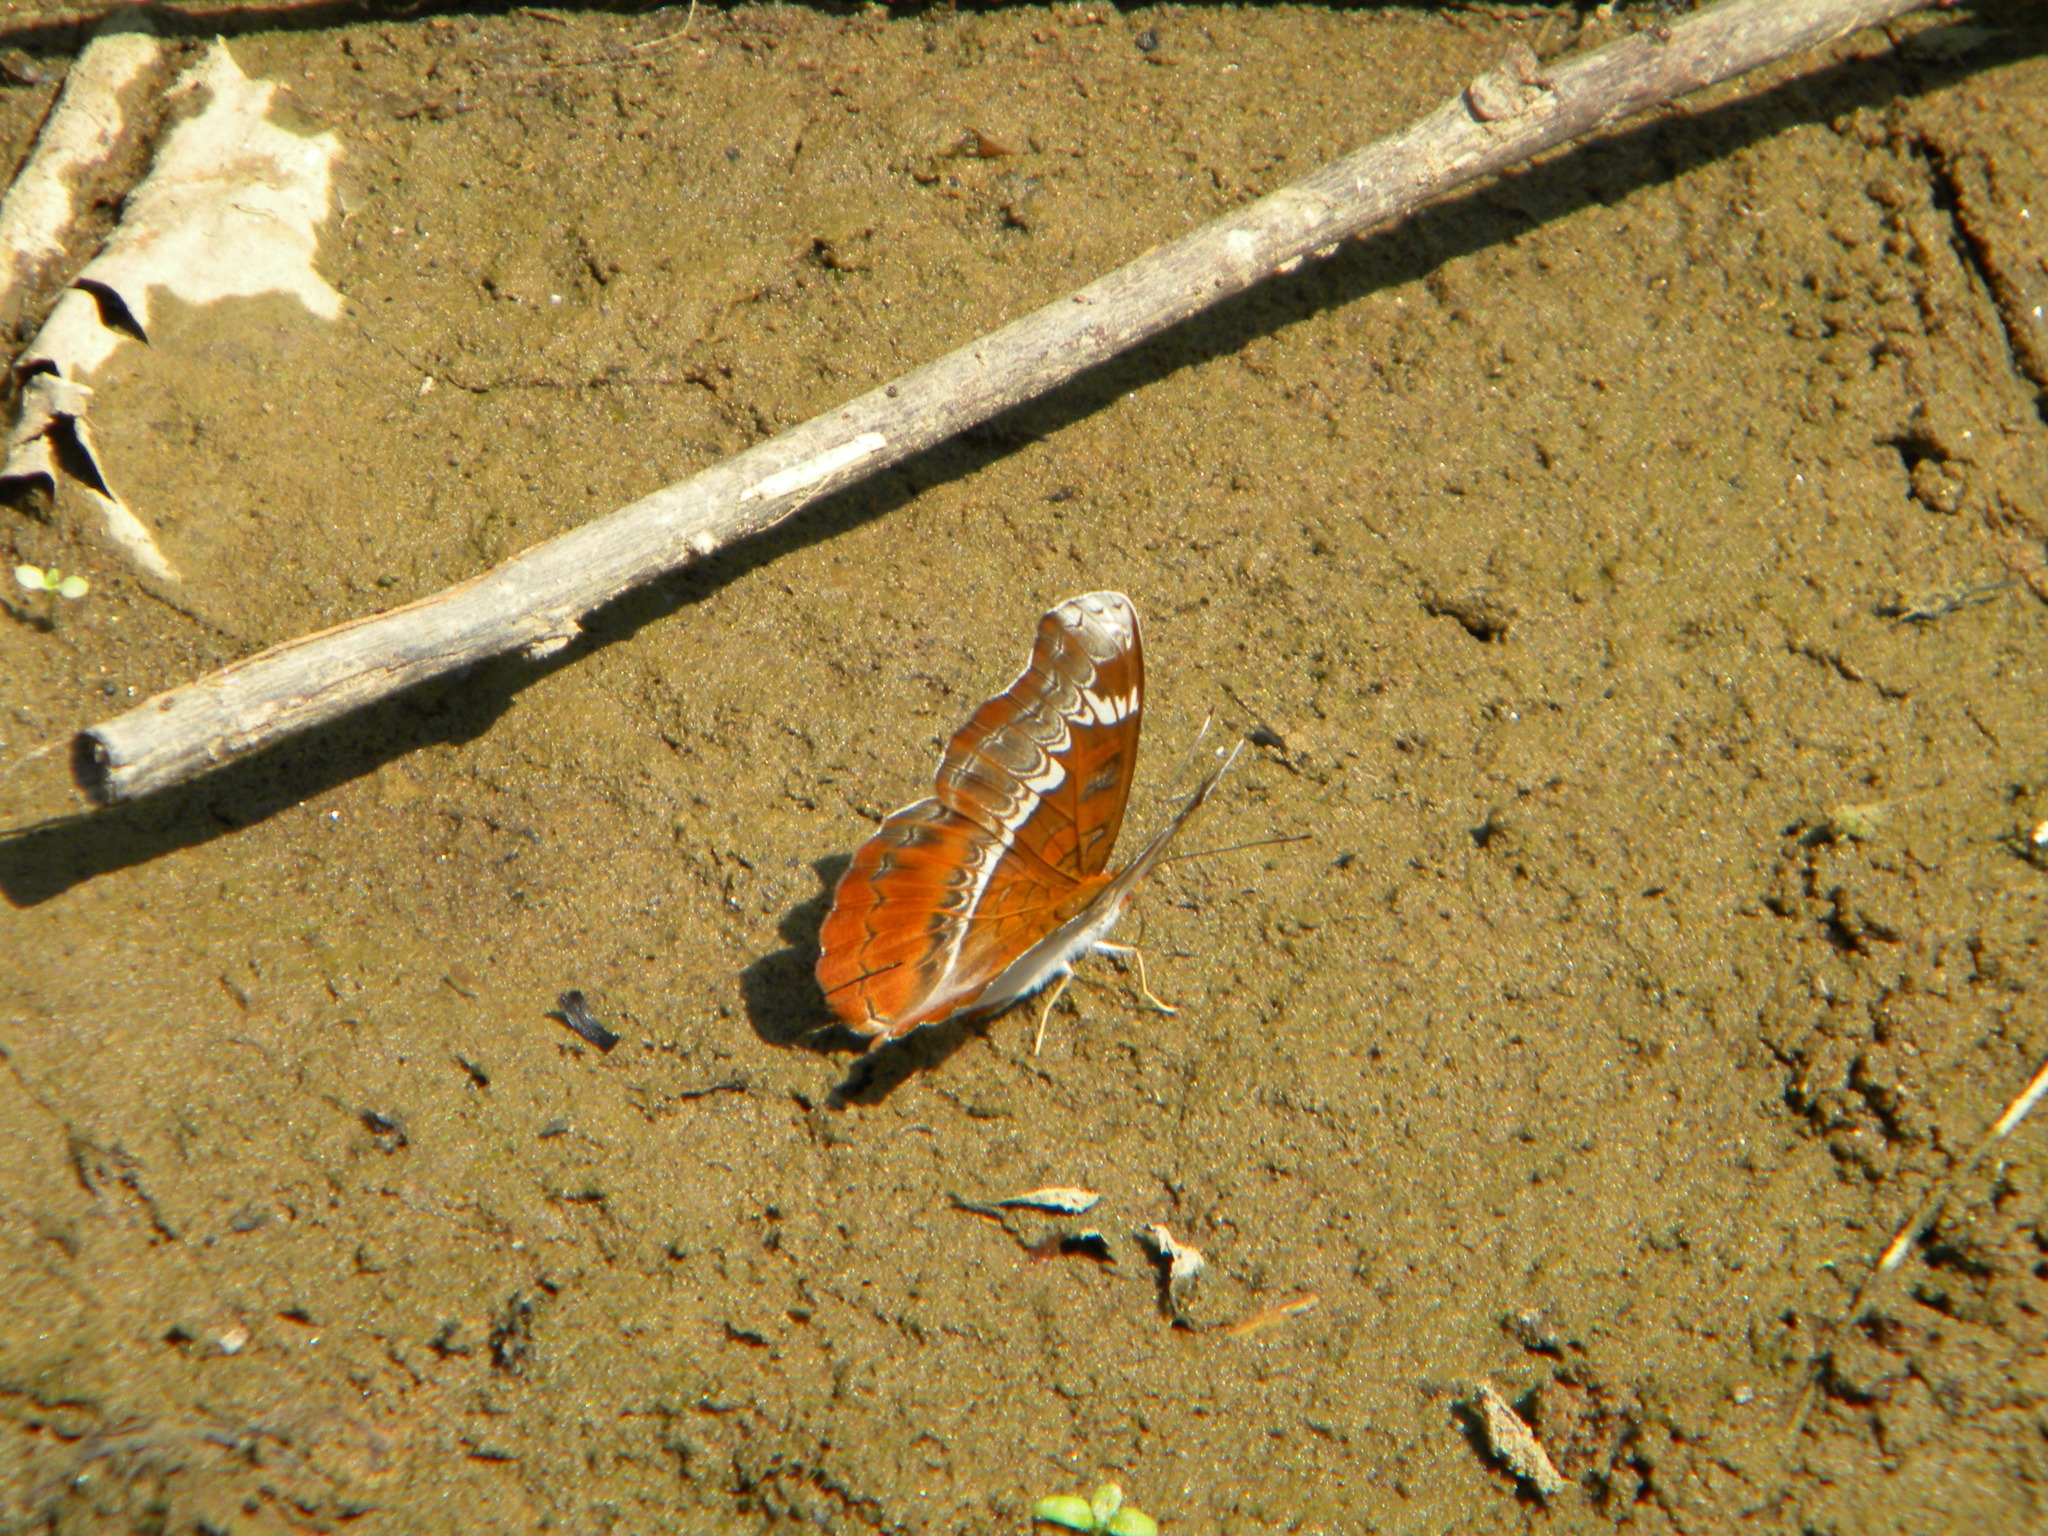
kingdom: Animalia
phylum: Arthropoda
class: Insecta
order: Lepidoptera
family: Nymphalidae
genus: Lebadea
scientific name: Lebadea martha
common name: Knight
